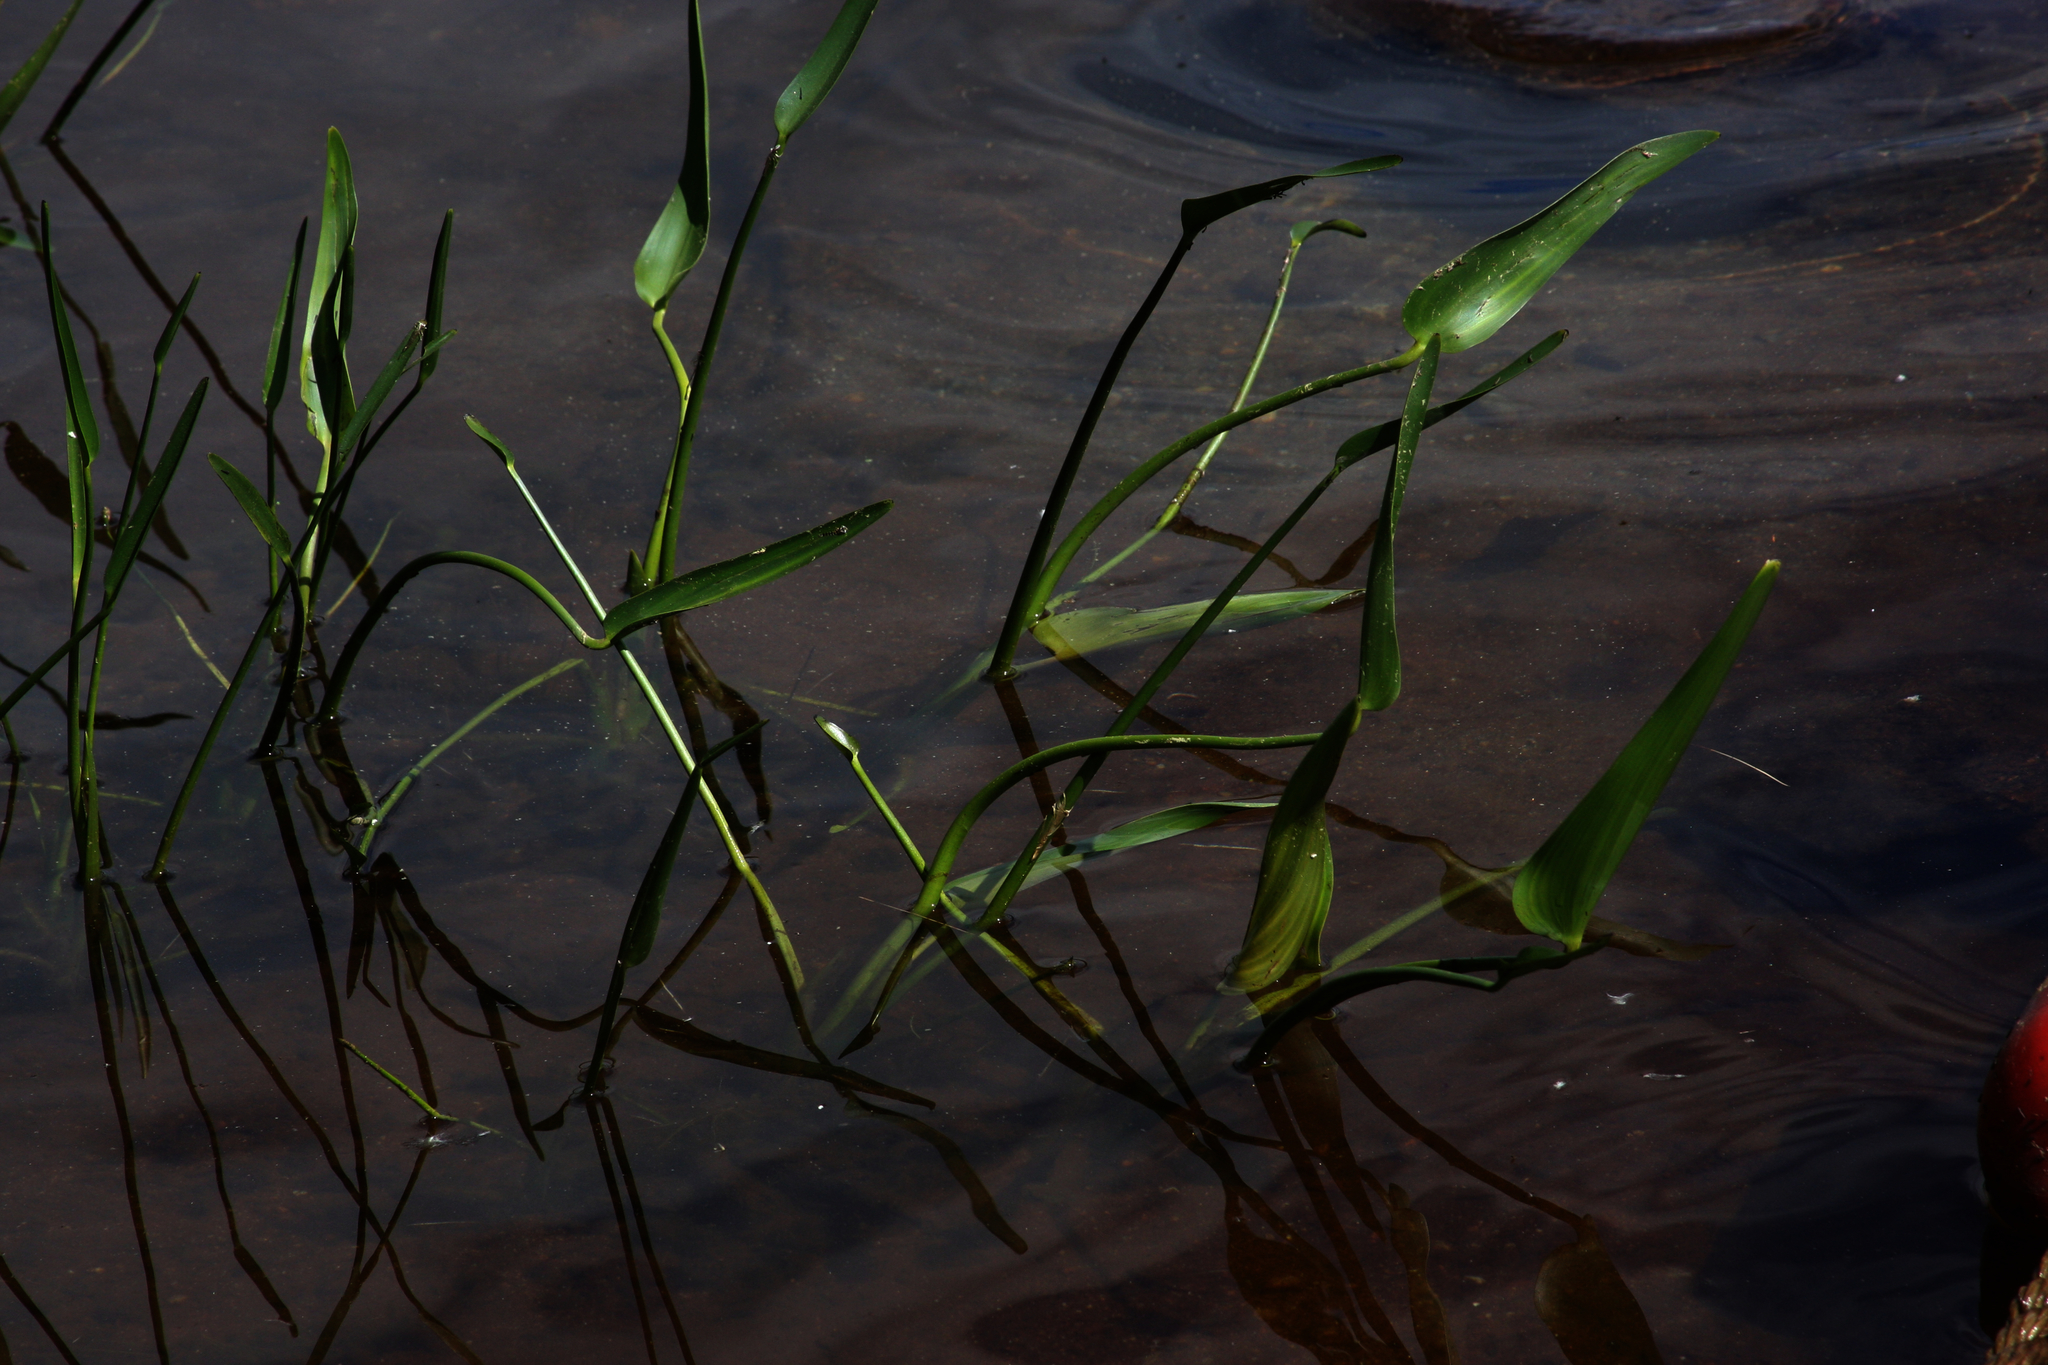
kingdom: Plantae
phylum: Tracheophyta
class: Liliopsida
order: Commelinales
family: Pontederiaceae
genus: Pontederia
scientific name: Pontederia cordata
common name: Pickerelweed
